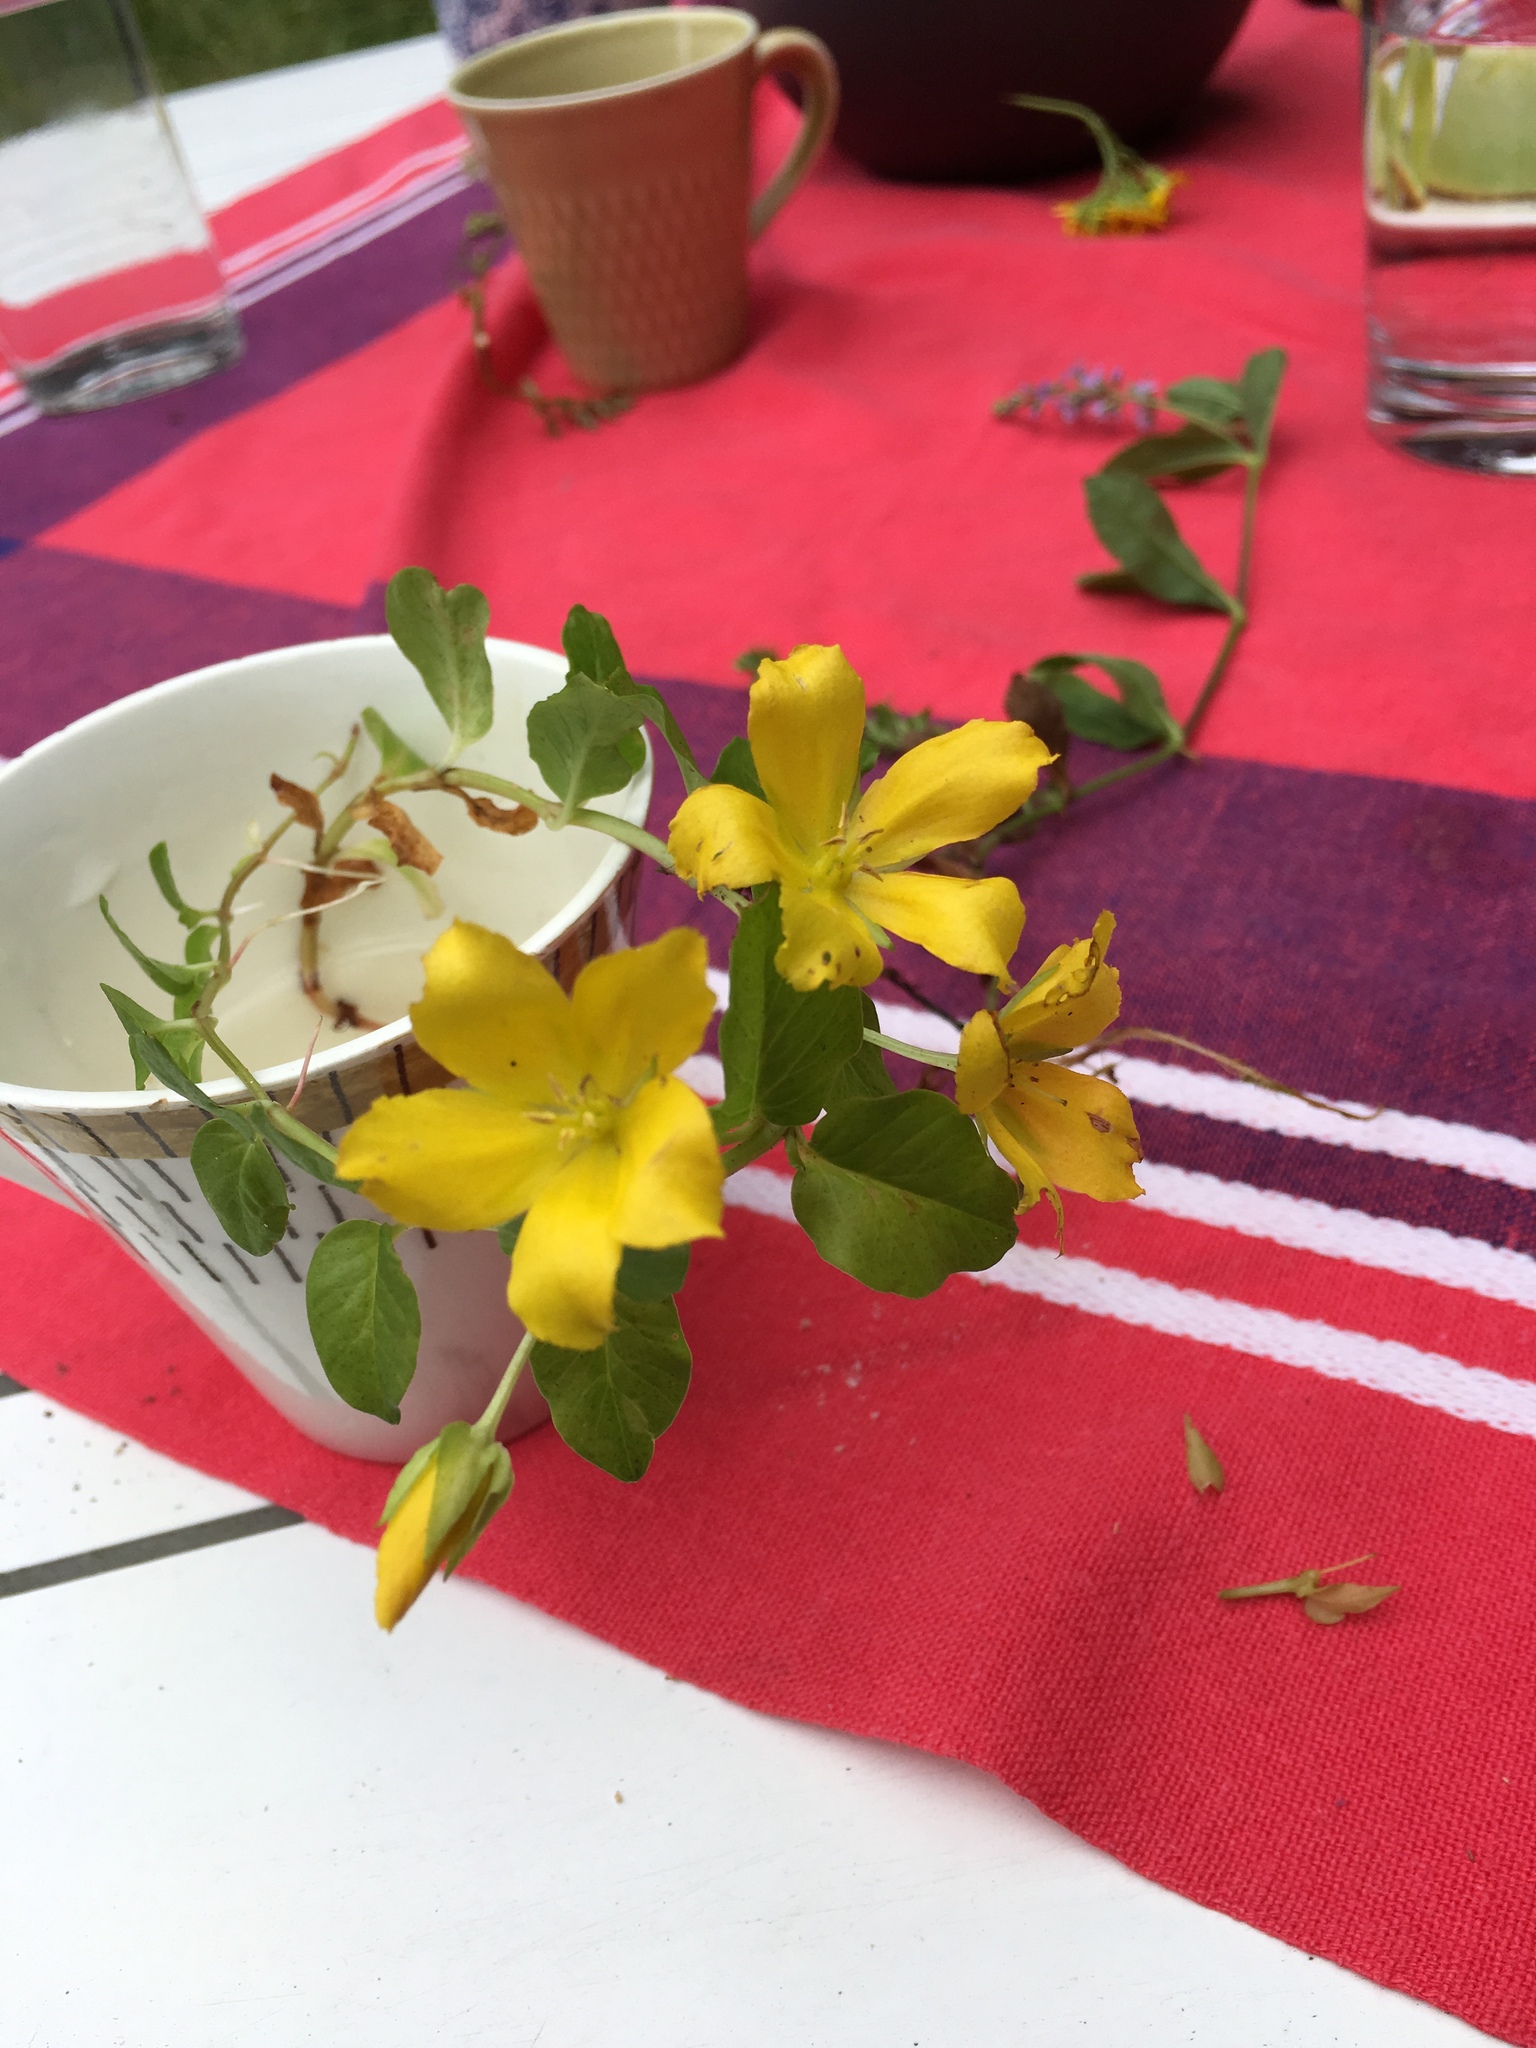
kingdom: Plantae
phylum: Tracheophyta
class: Magnoliopsida
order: Ericales
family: Primulaceae
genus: Lysimachia
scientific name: Lysimachia nummularia
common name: Moneywort
